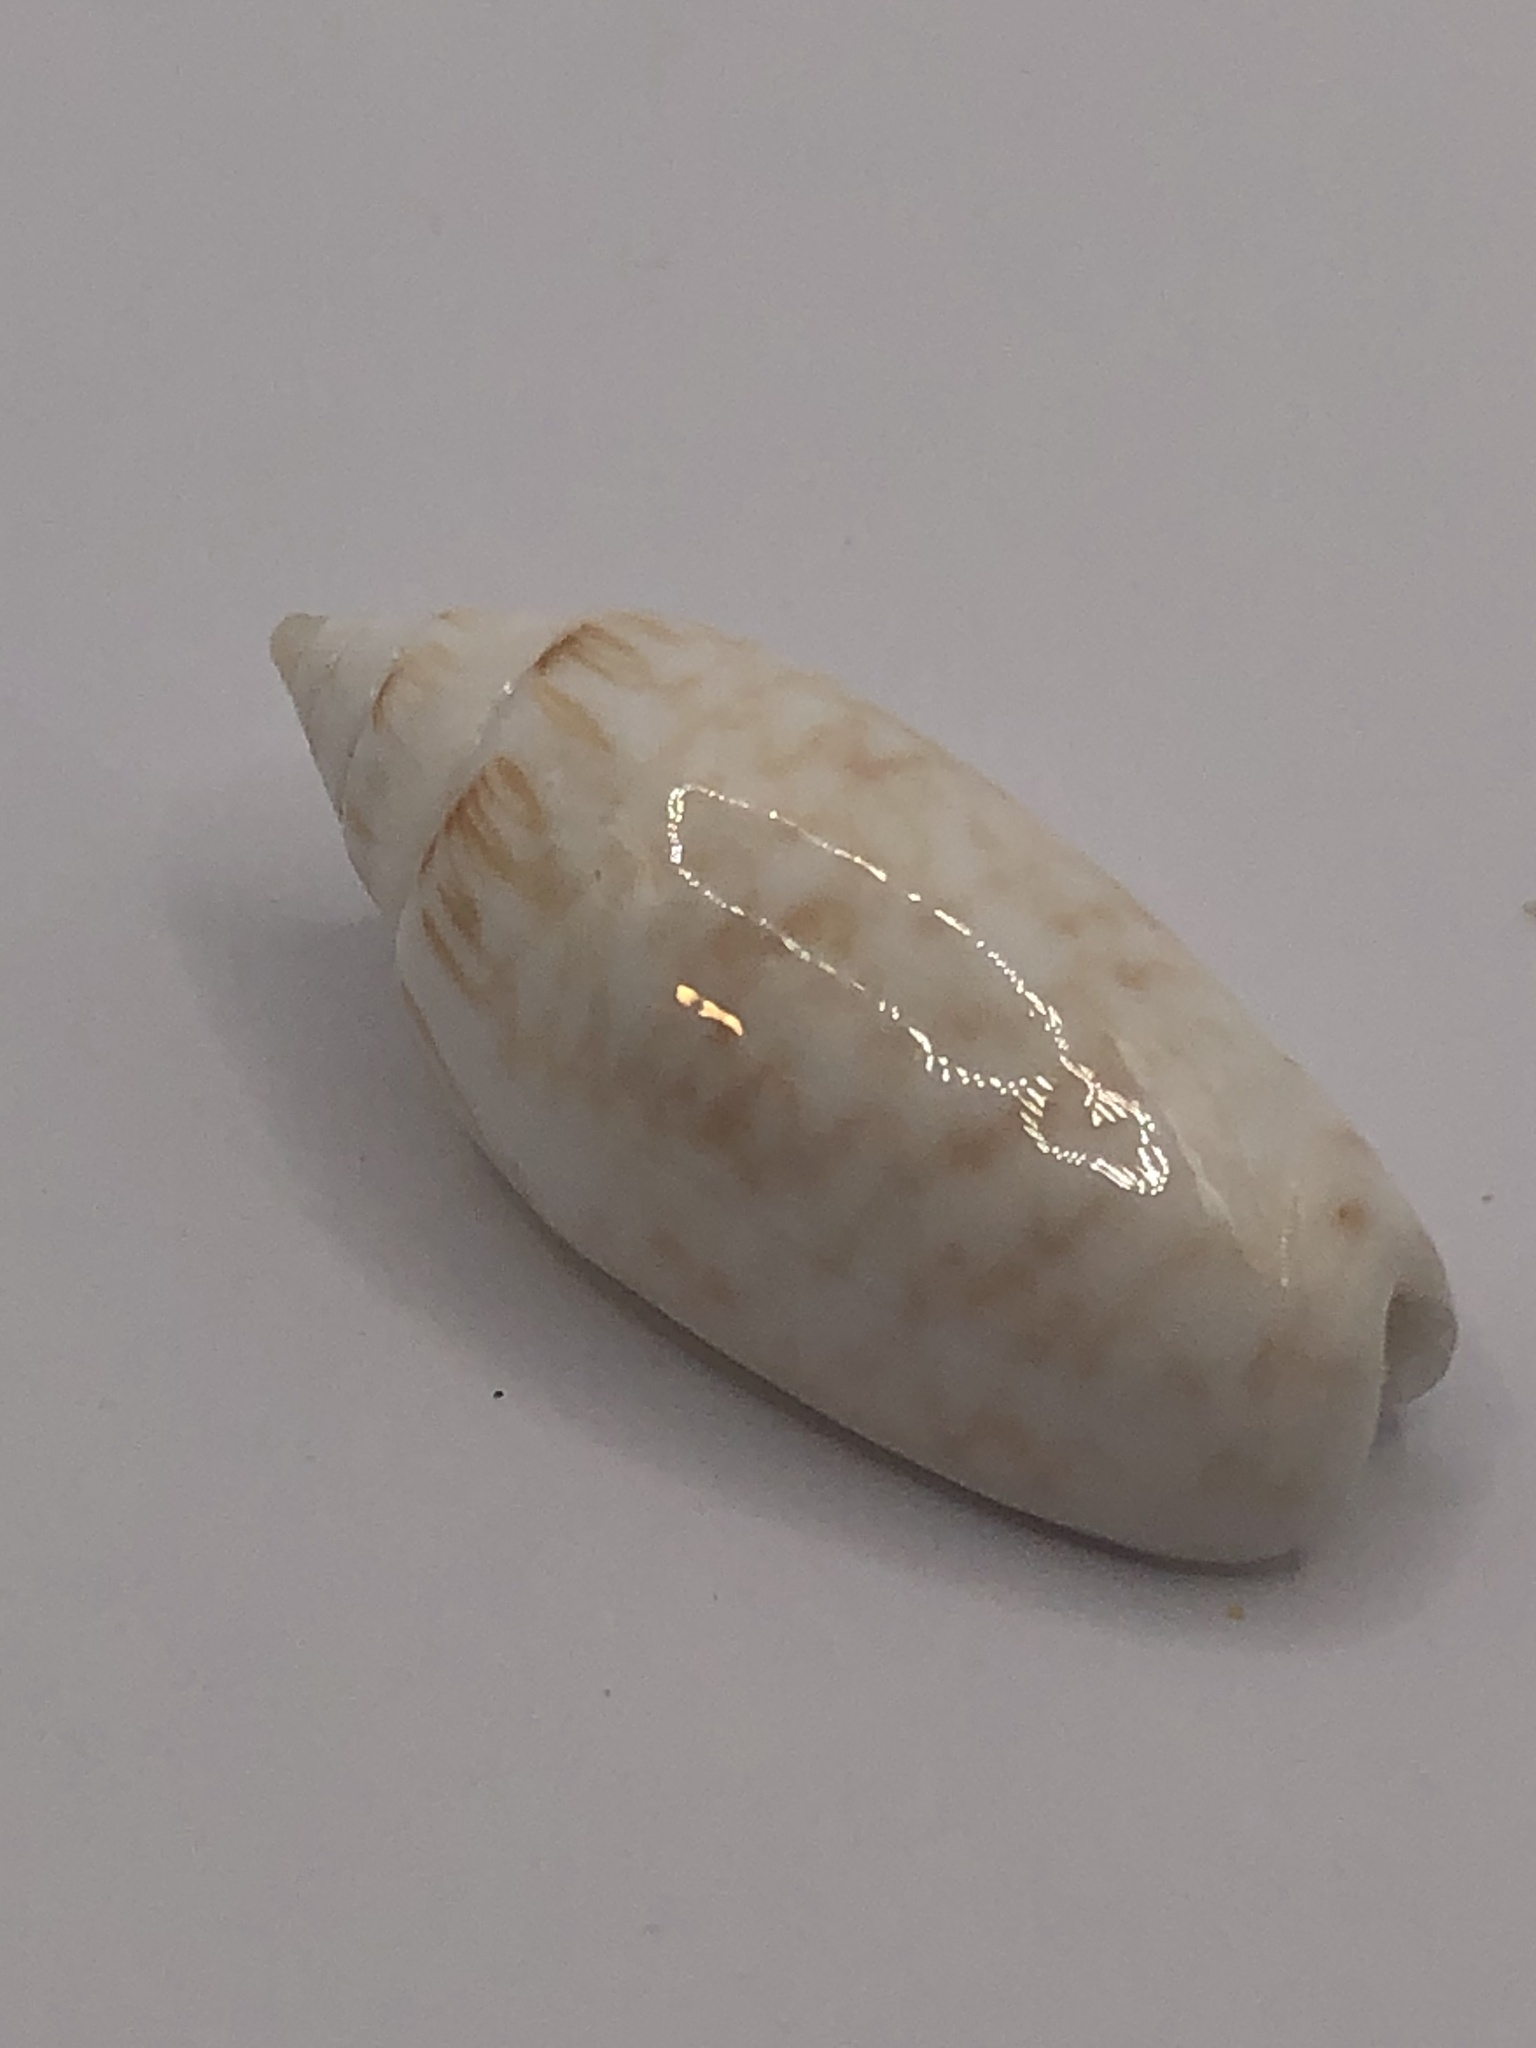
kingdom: Animalia
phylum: Mollusca
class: Gastropoda
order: Neogastropoda
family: Olividae
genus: Oliva
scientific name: Oliva reticularis
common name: Netted olive
